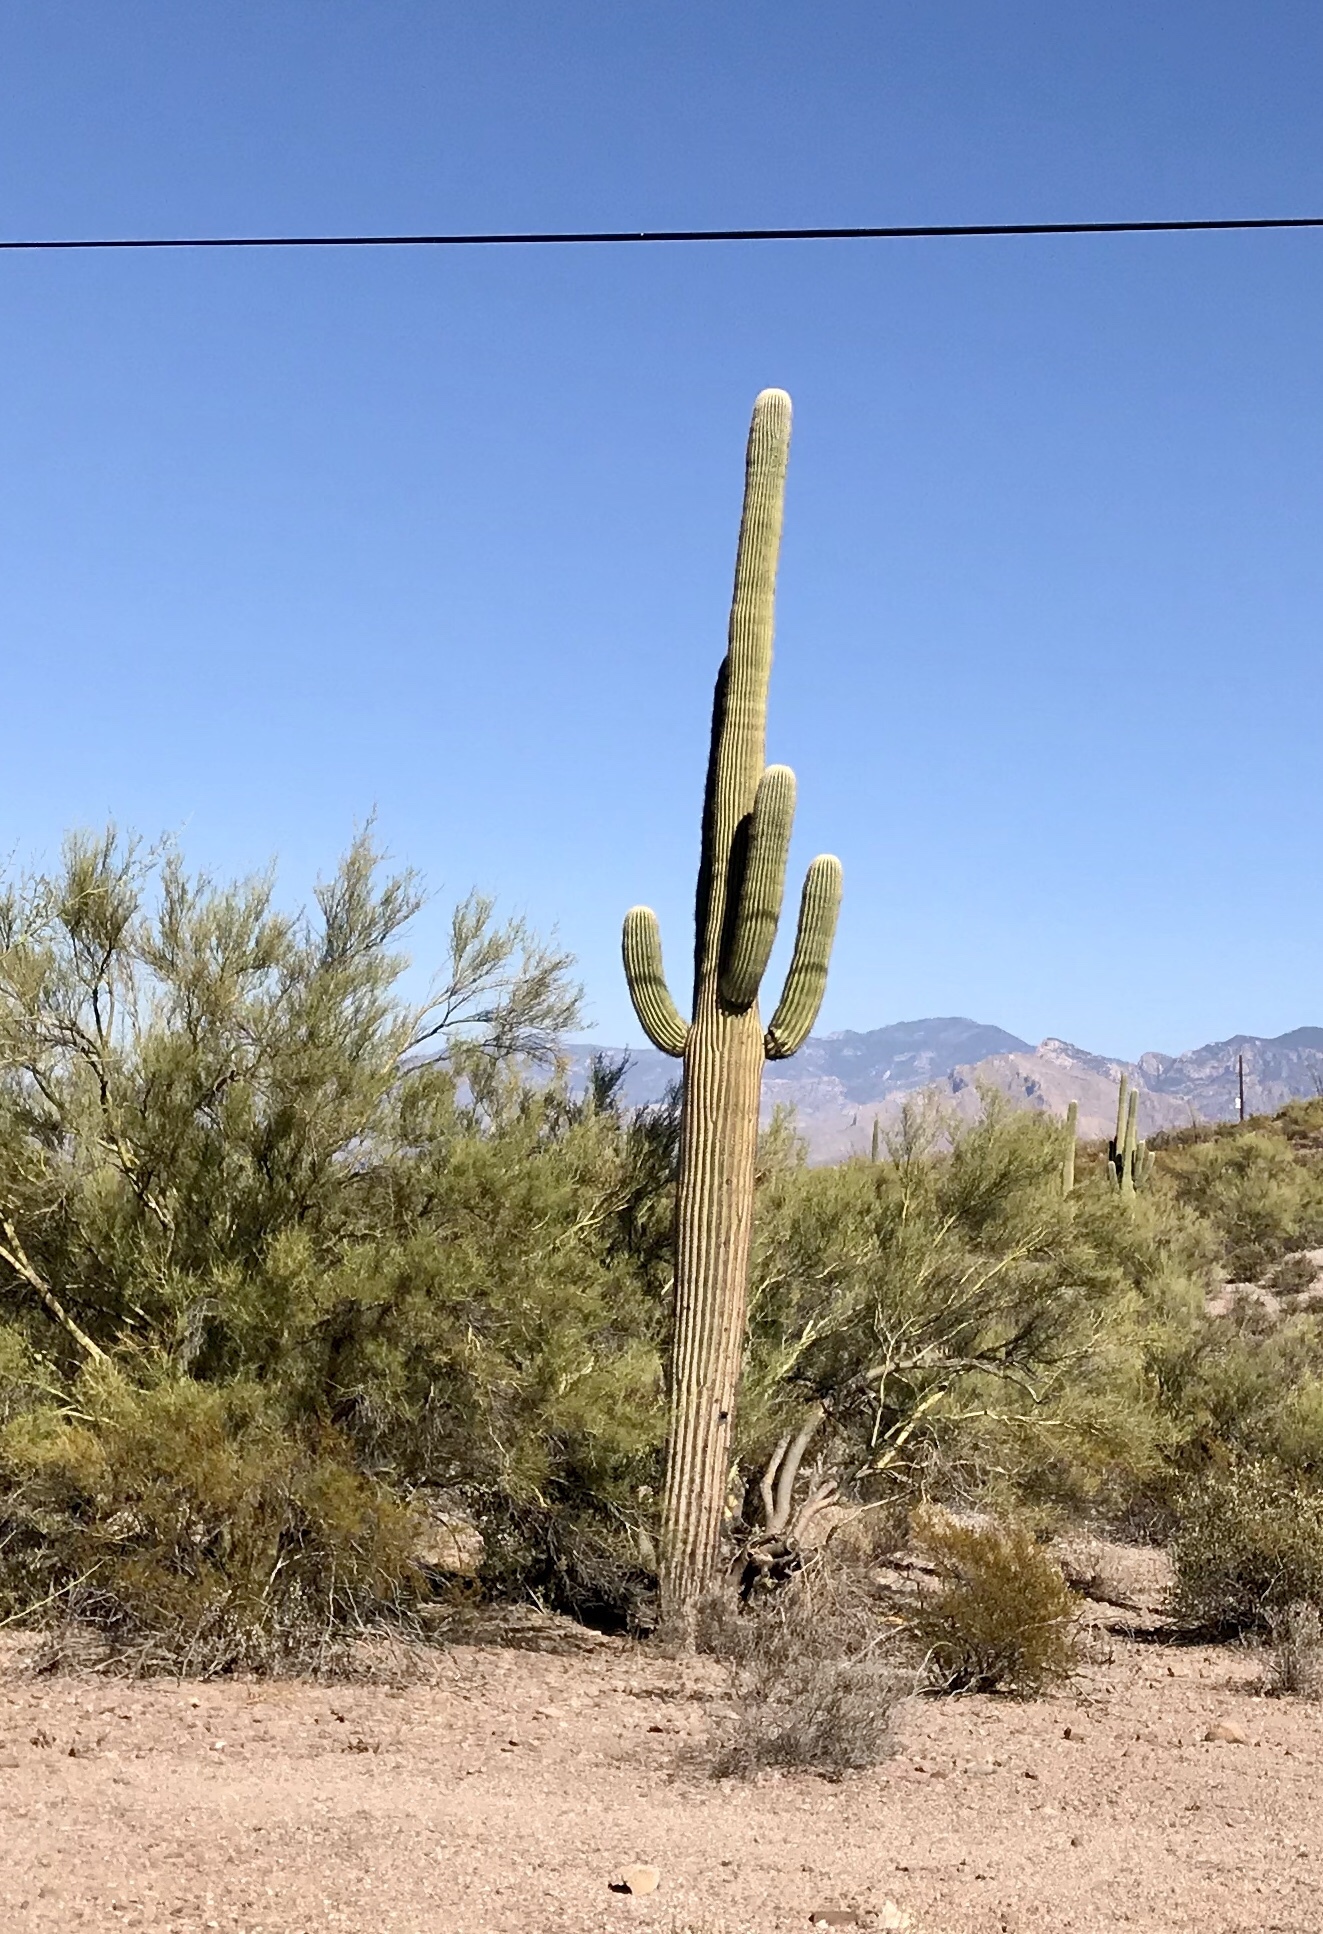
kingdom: Plantae
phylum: Tracheophyta
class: Magnoliopsida
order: Caryophyllales
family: Cactaceae
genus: Carnegiea
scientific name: Carnegiea gigantea
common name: Saguaro
